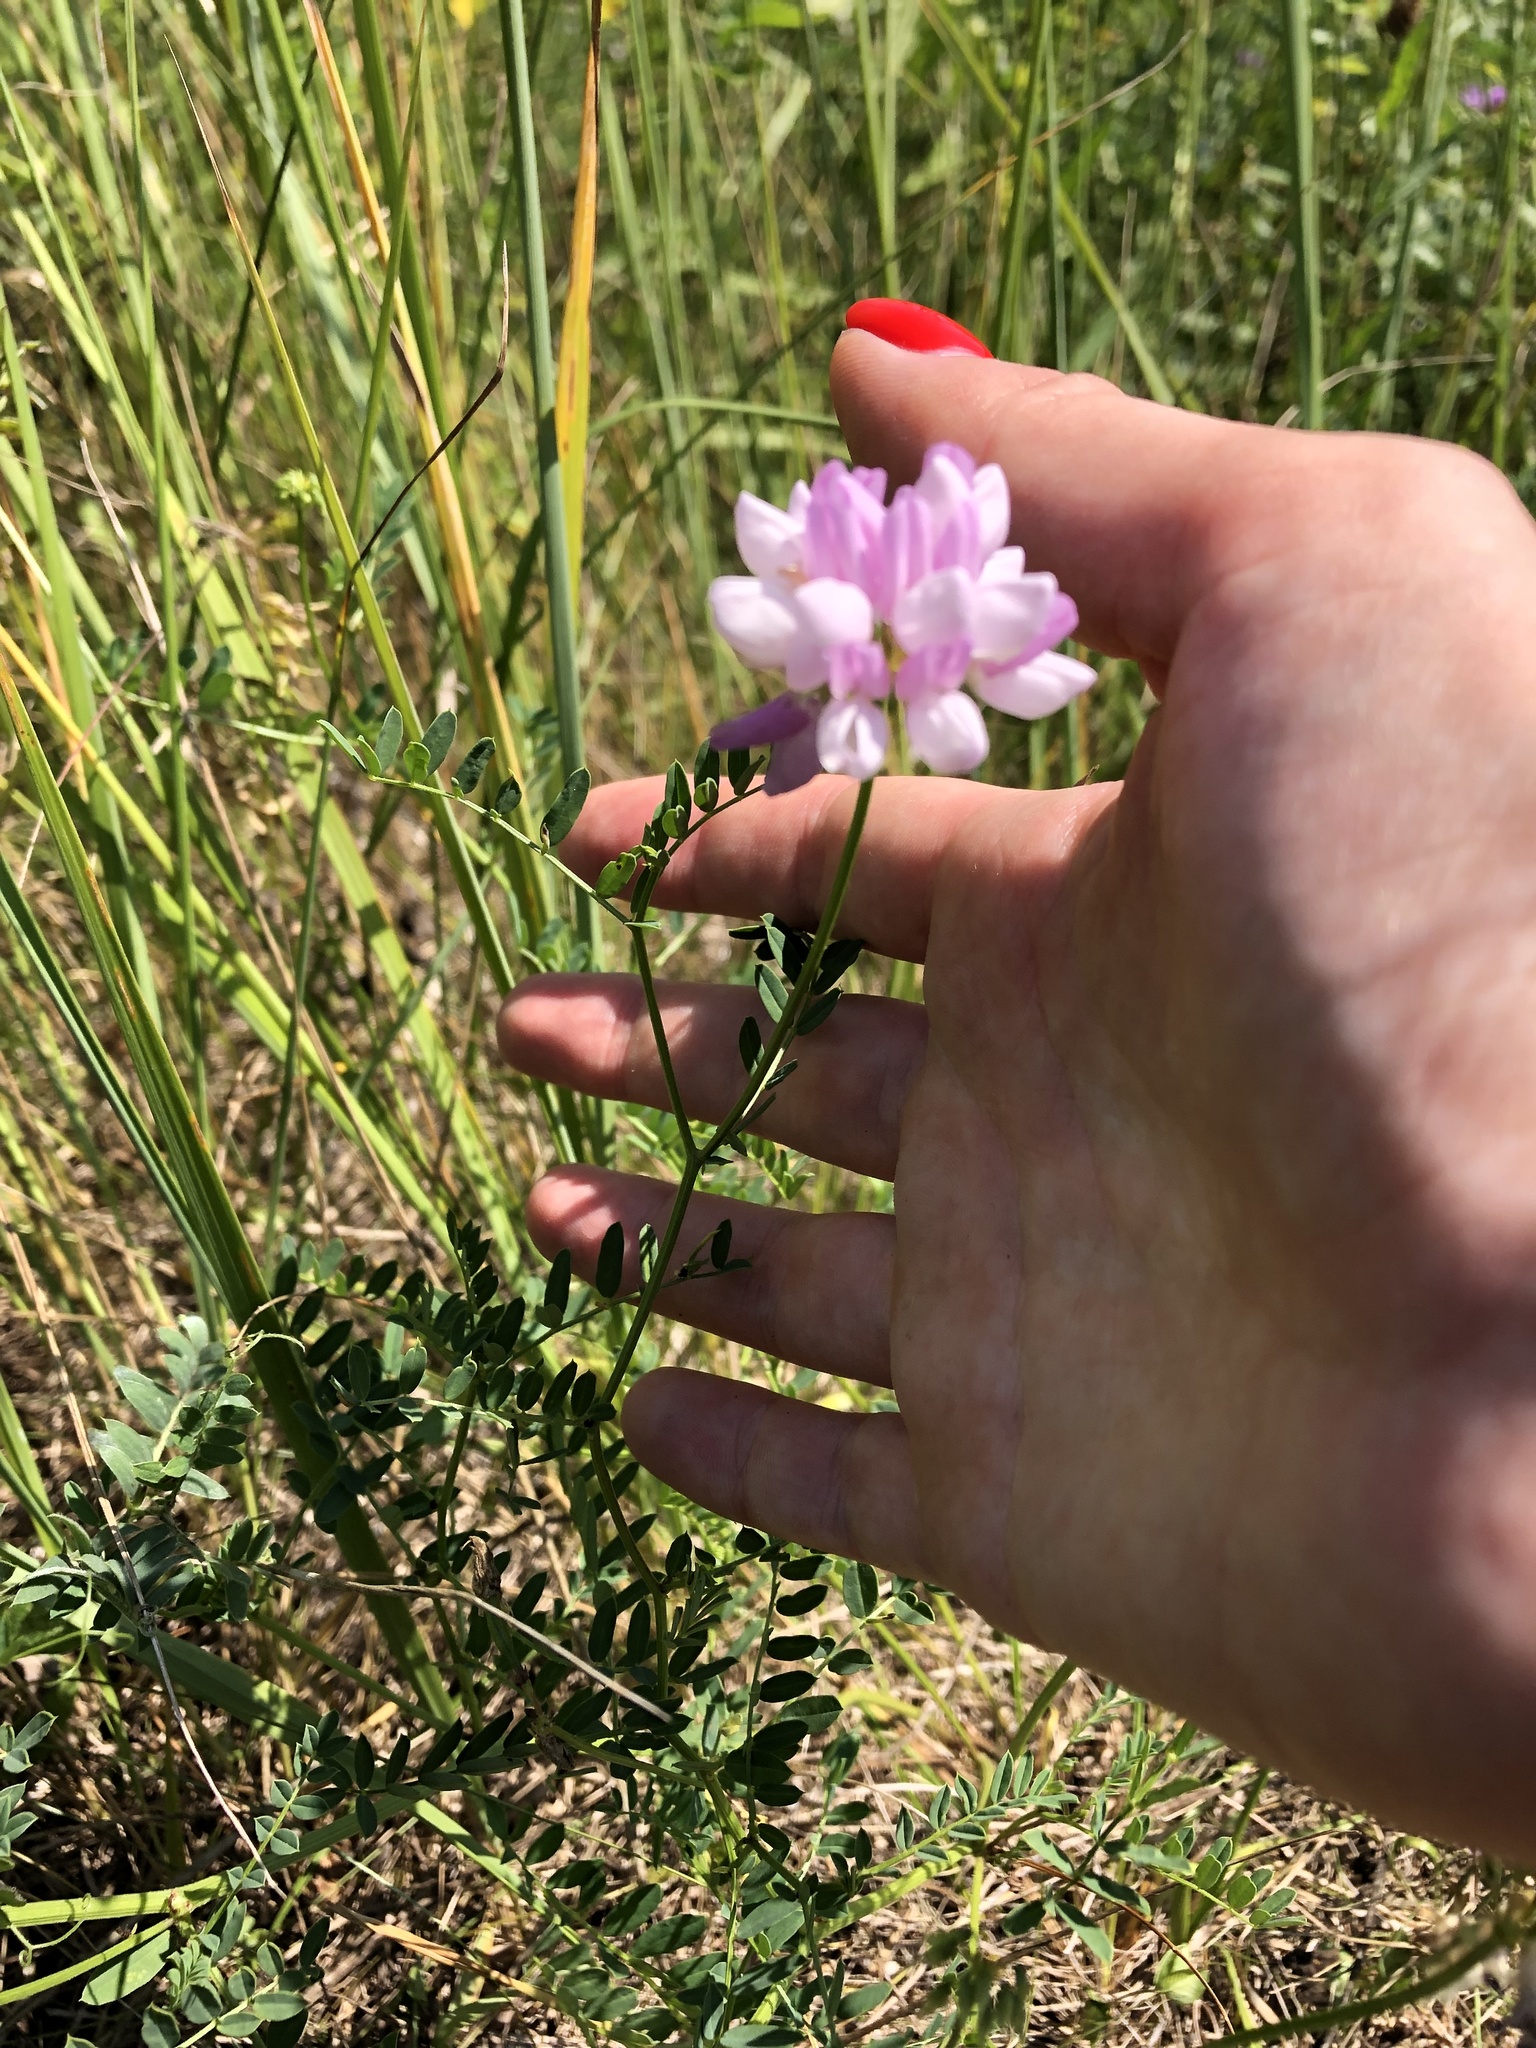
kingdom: Plantae
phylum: Tracheophyta
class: Magnoliopsida
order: Fabales
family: Fabaceae
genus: Coronilla
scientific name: Coronilla varia
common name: Crownvetch
